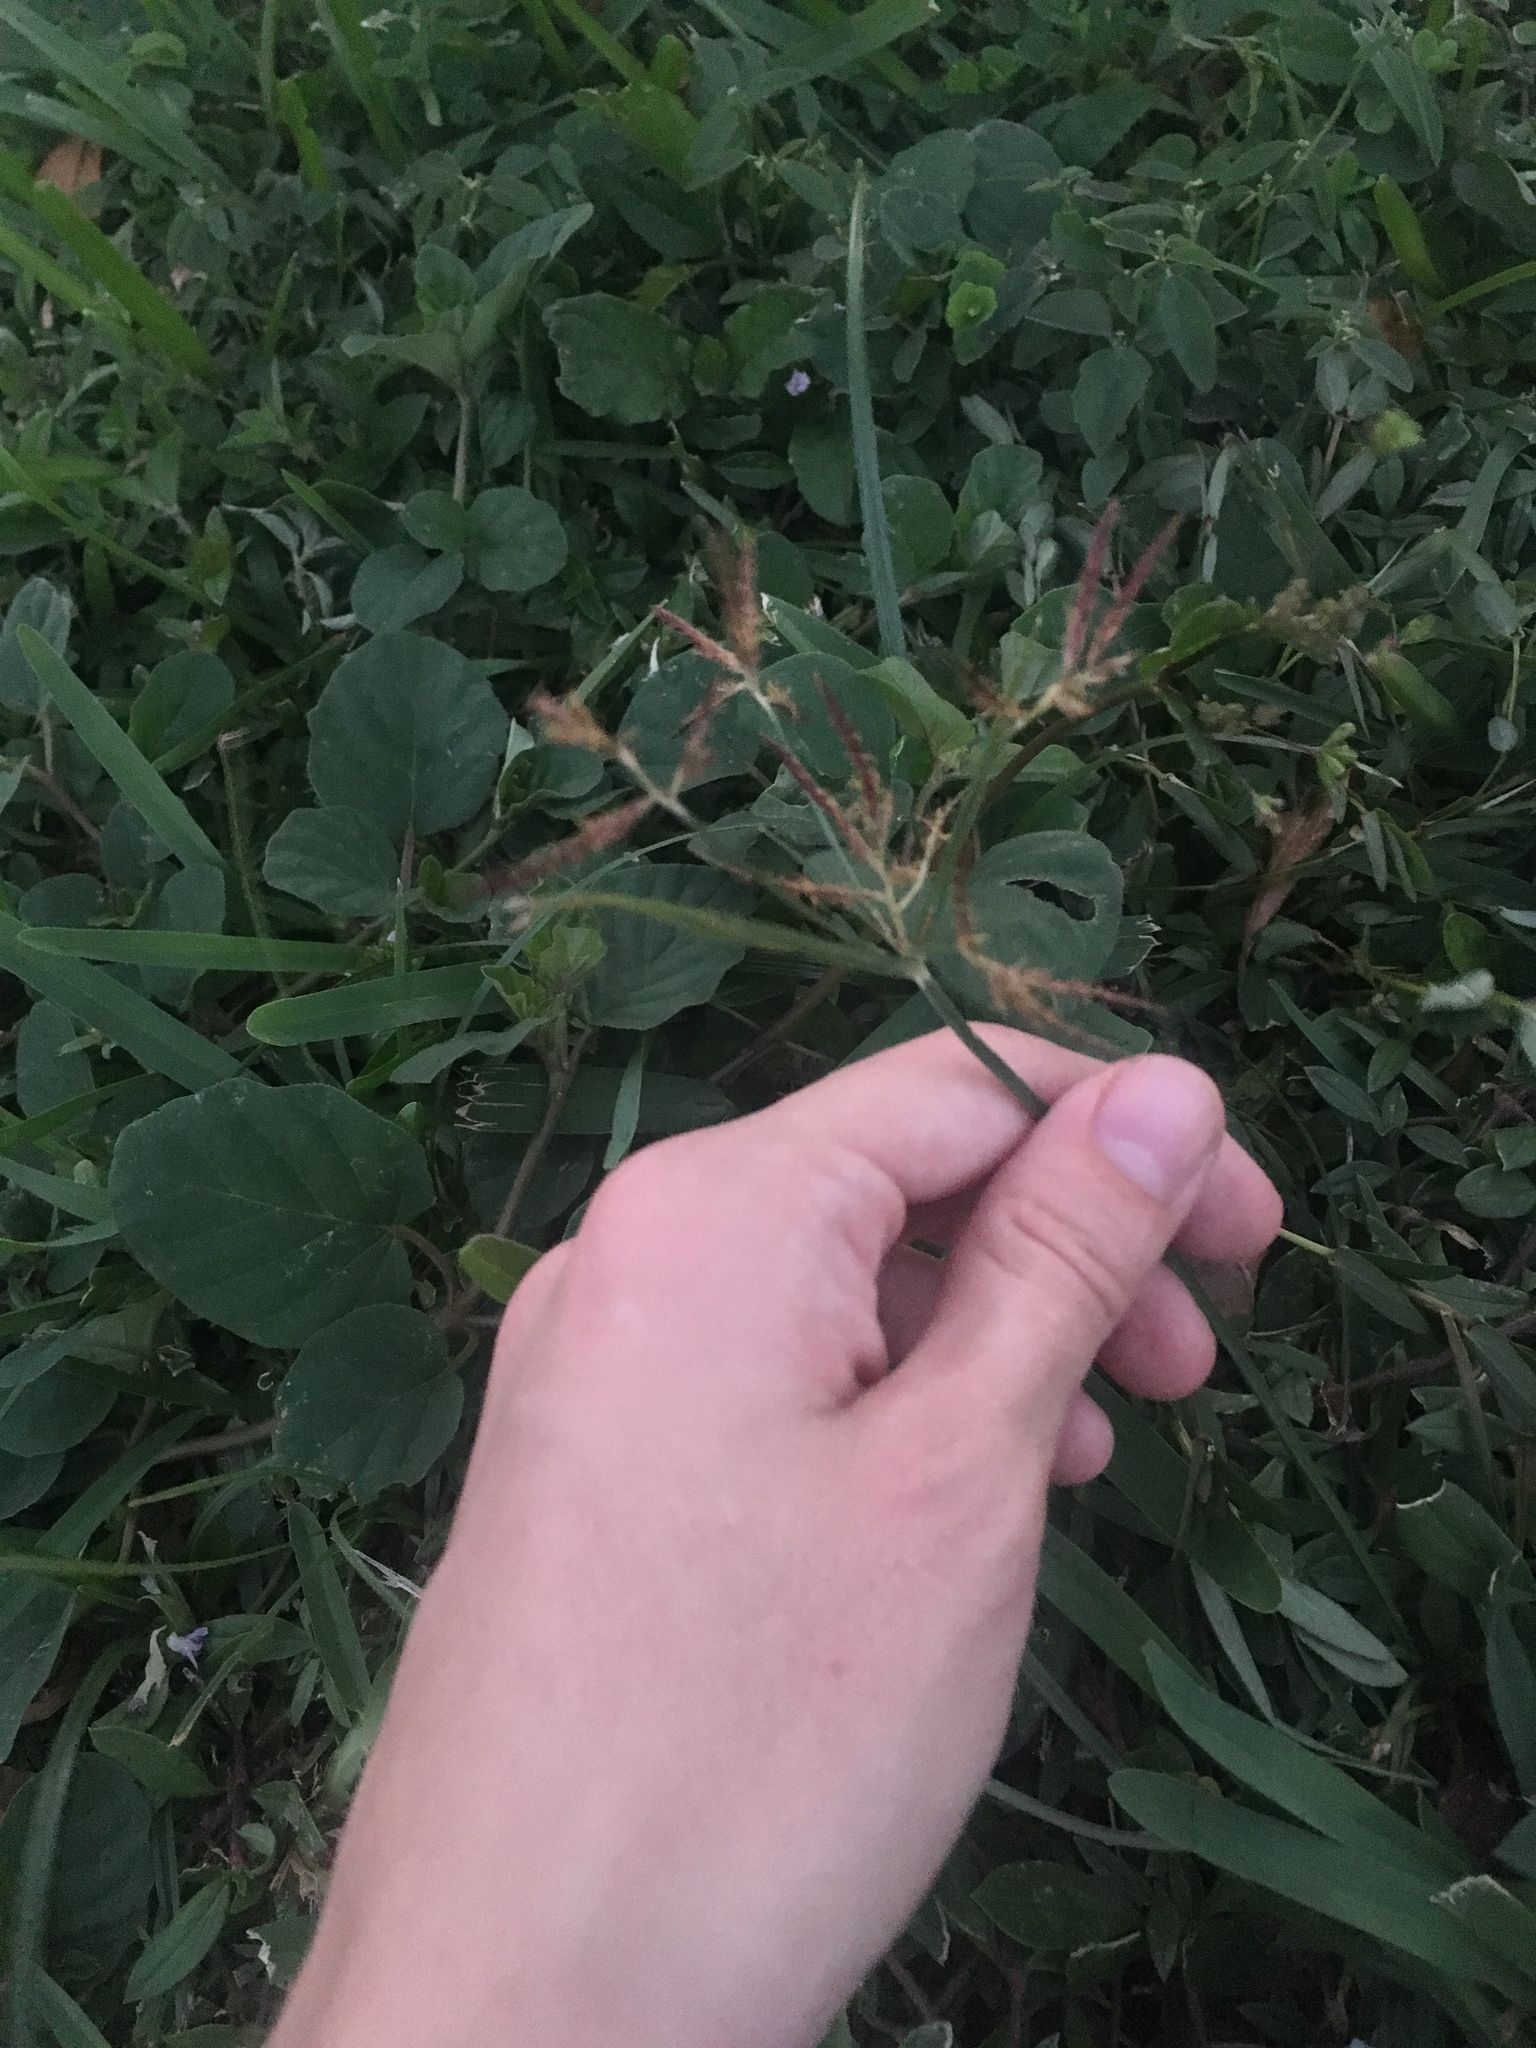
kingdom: Plantae
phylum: Tracheophyta
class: Liliopsida
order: Poales
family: Cyperaceae
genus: Cyperus
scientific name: Cyperus rotundus
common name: Nutgrass
